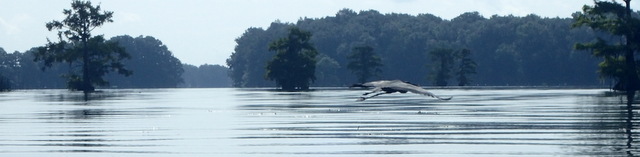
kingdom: Animalia
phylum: Chordata
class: Aves
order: Pelecaniformes
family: Ardeidae
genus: Ardea
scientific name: Ardea herodias
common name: Great blue heron
